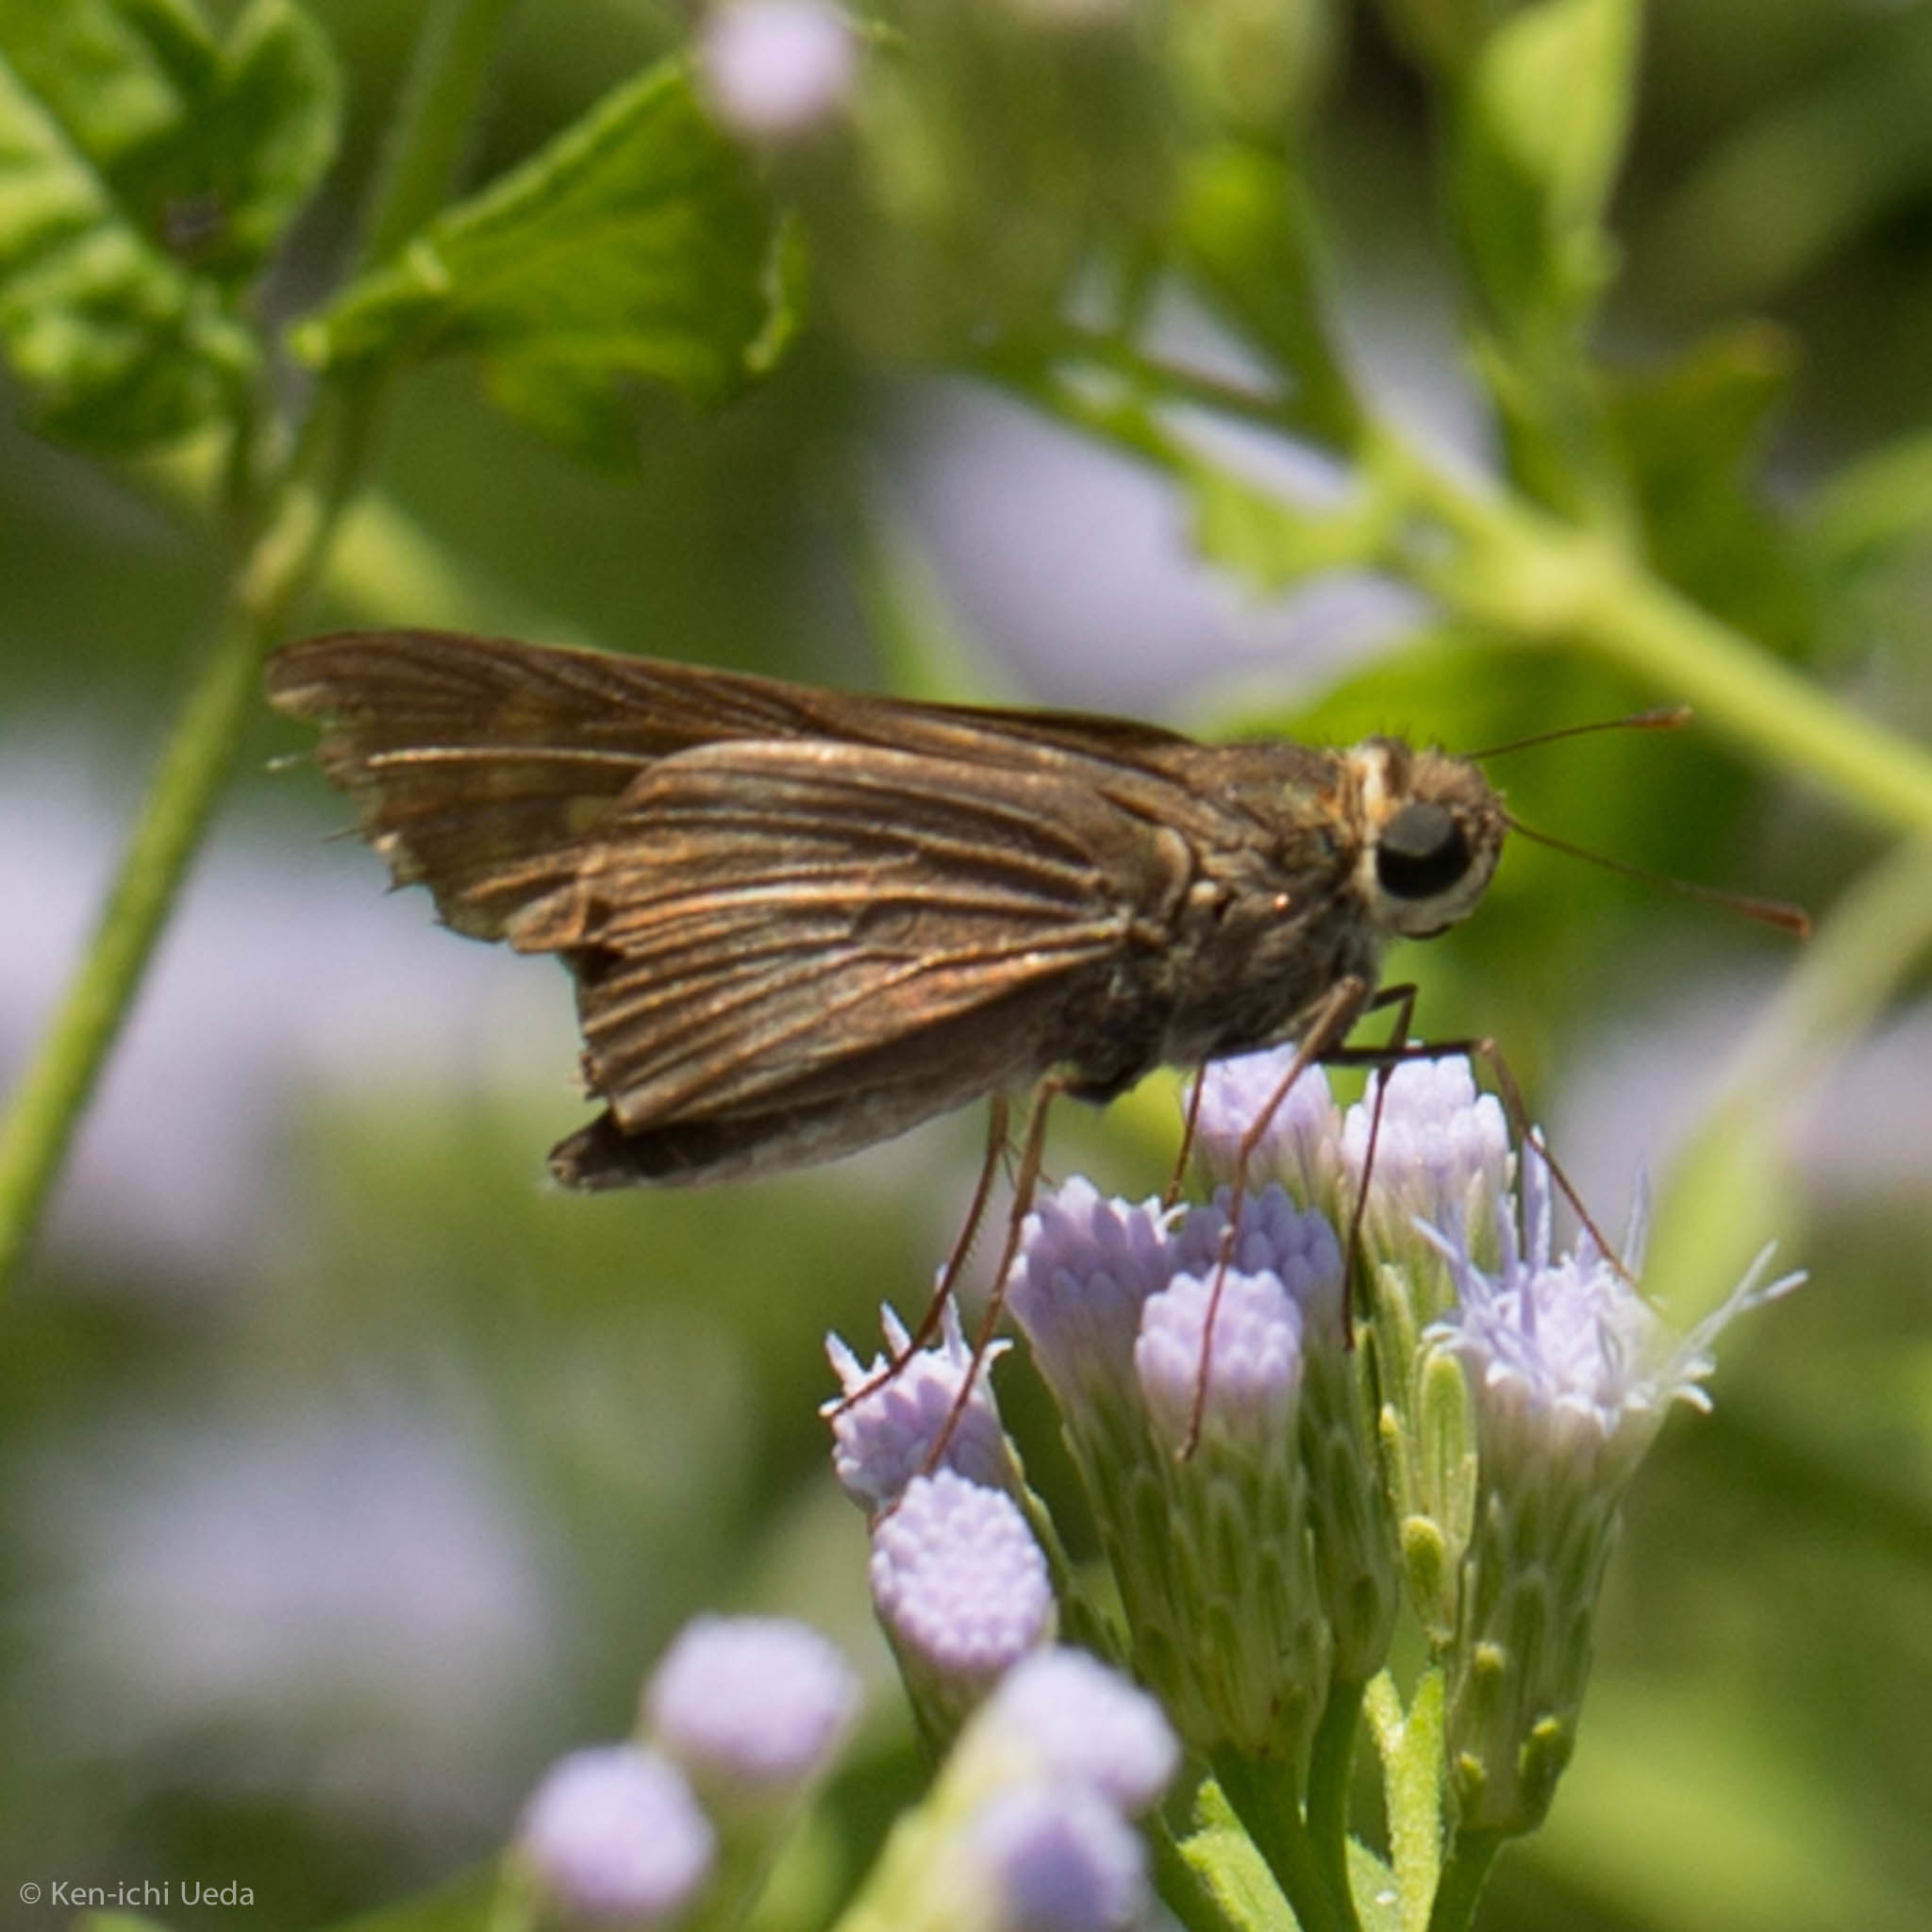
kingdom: Animalia
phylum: Arthropoda
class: Insecta
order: Lepidoptera
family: Hesperiidae
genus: Panoquina
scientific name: Panoquina fusina
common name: Evans' skipper
